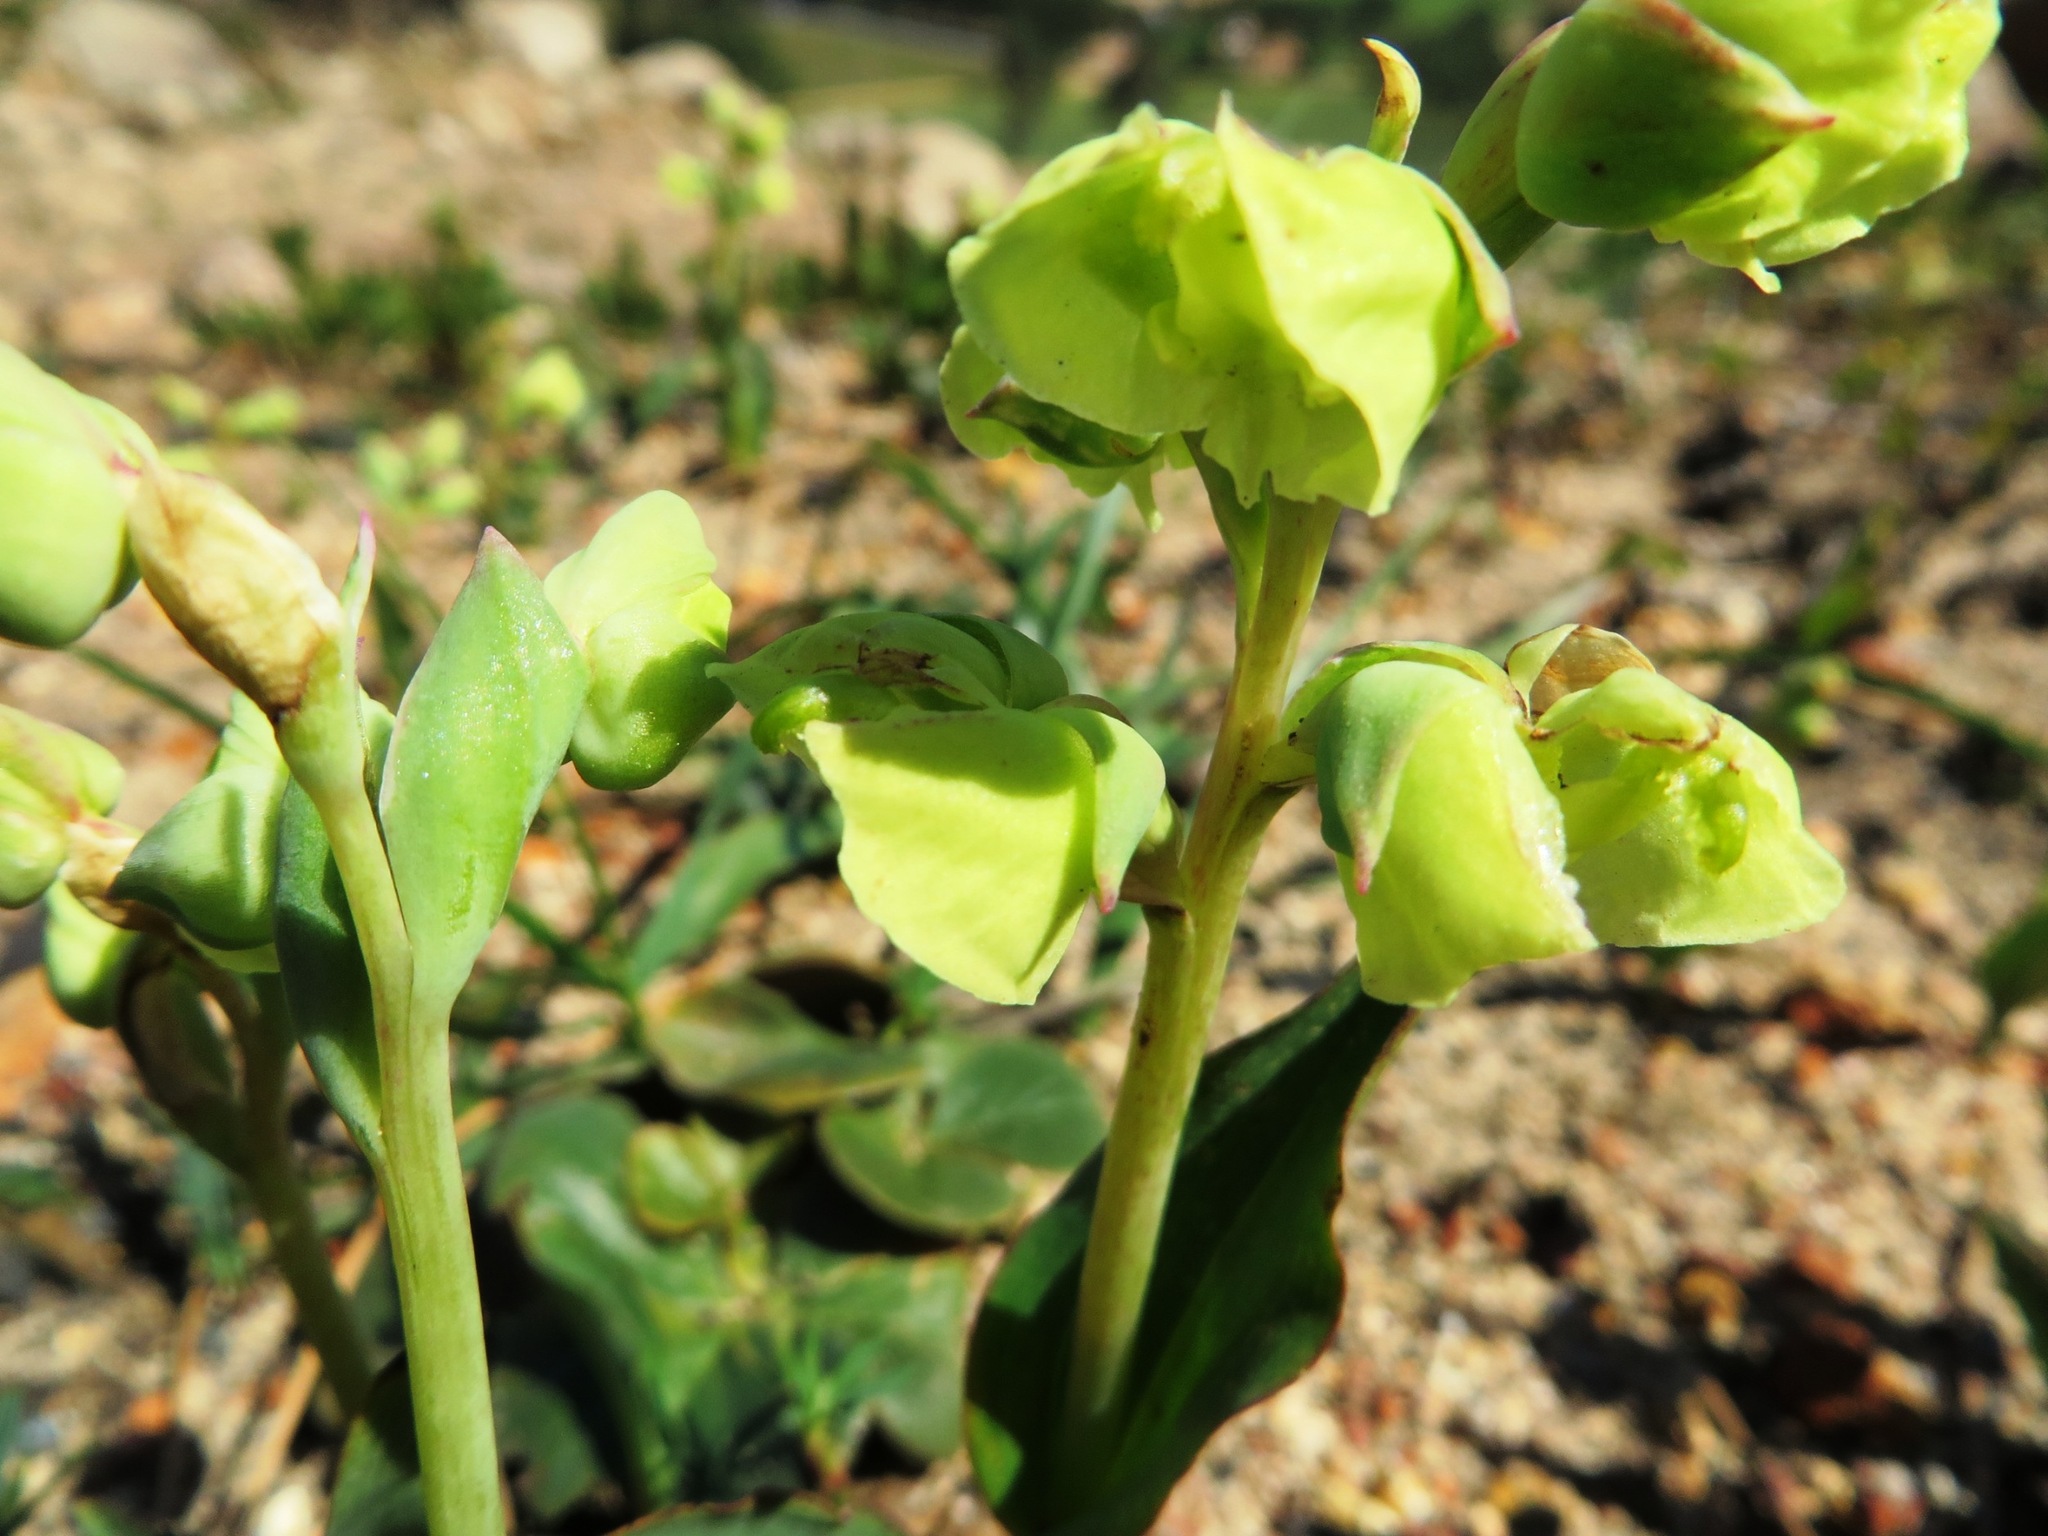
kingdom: Plantae
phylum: Tracheophyta
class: Liliopsida
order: Asparagales
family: Orchidaceae
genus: Pterygodium
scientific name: Pterygodium catholicum
